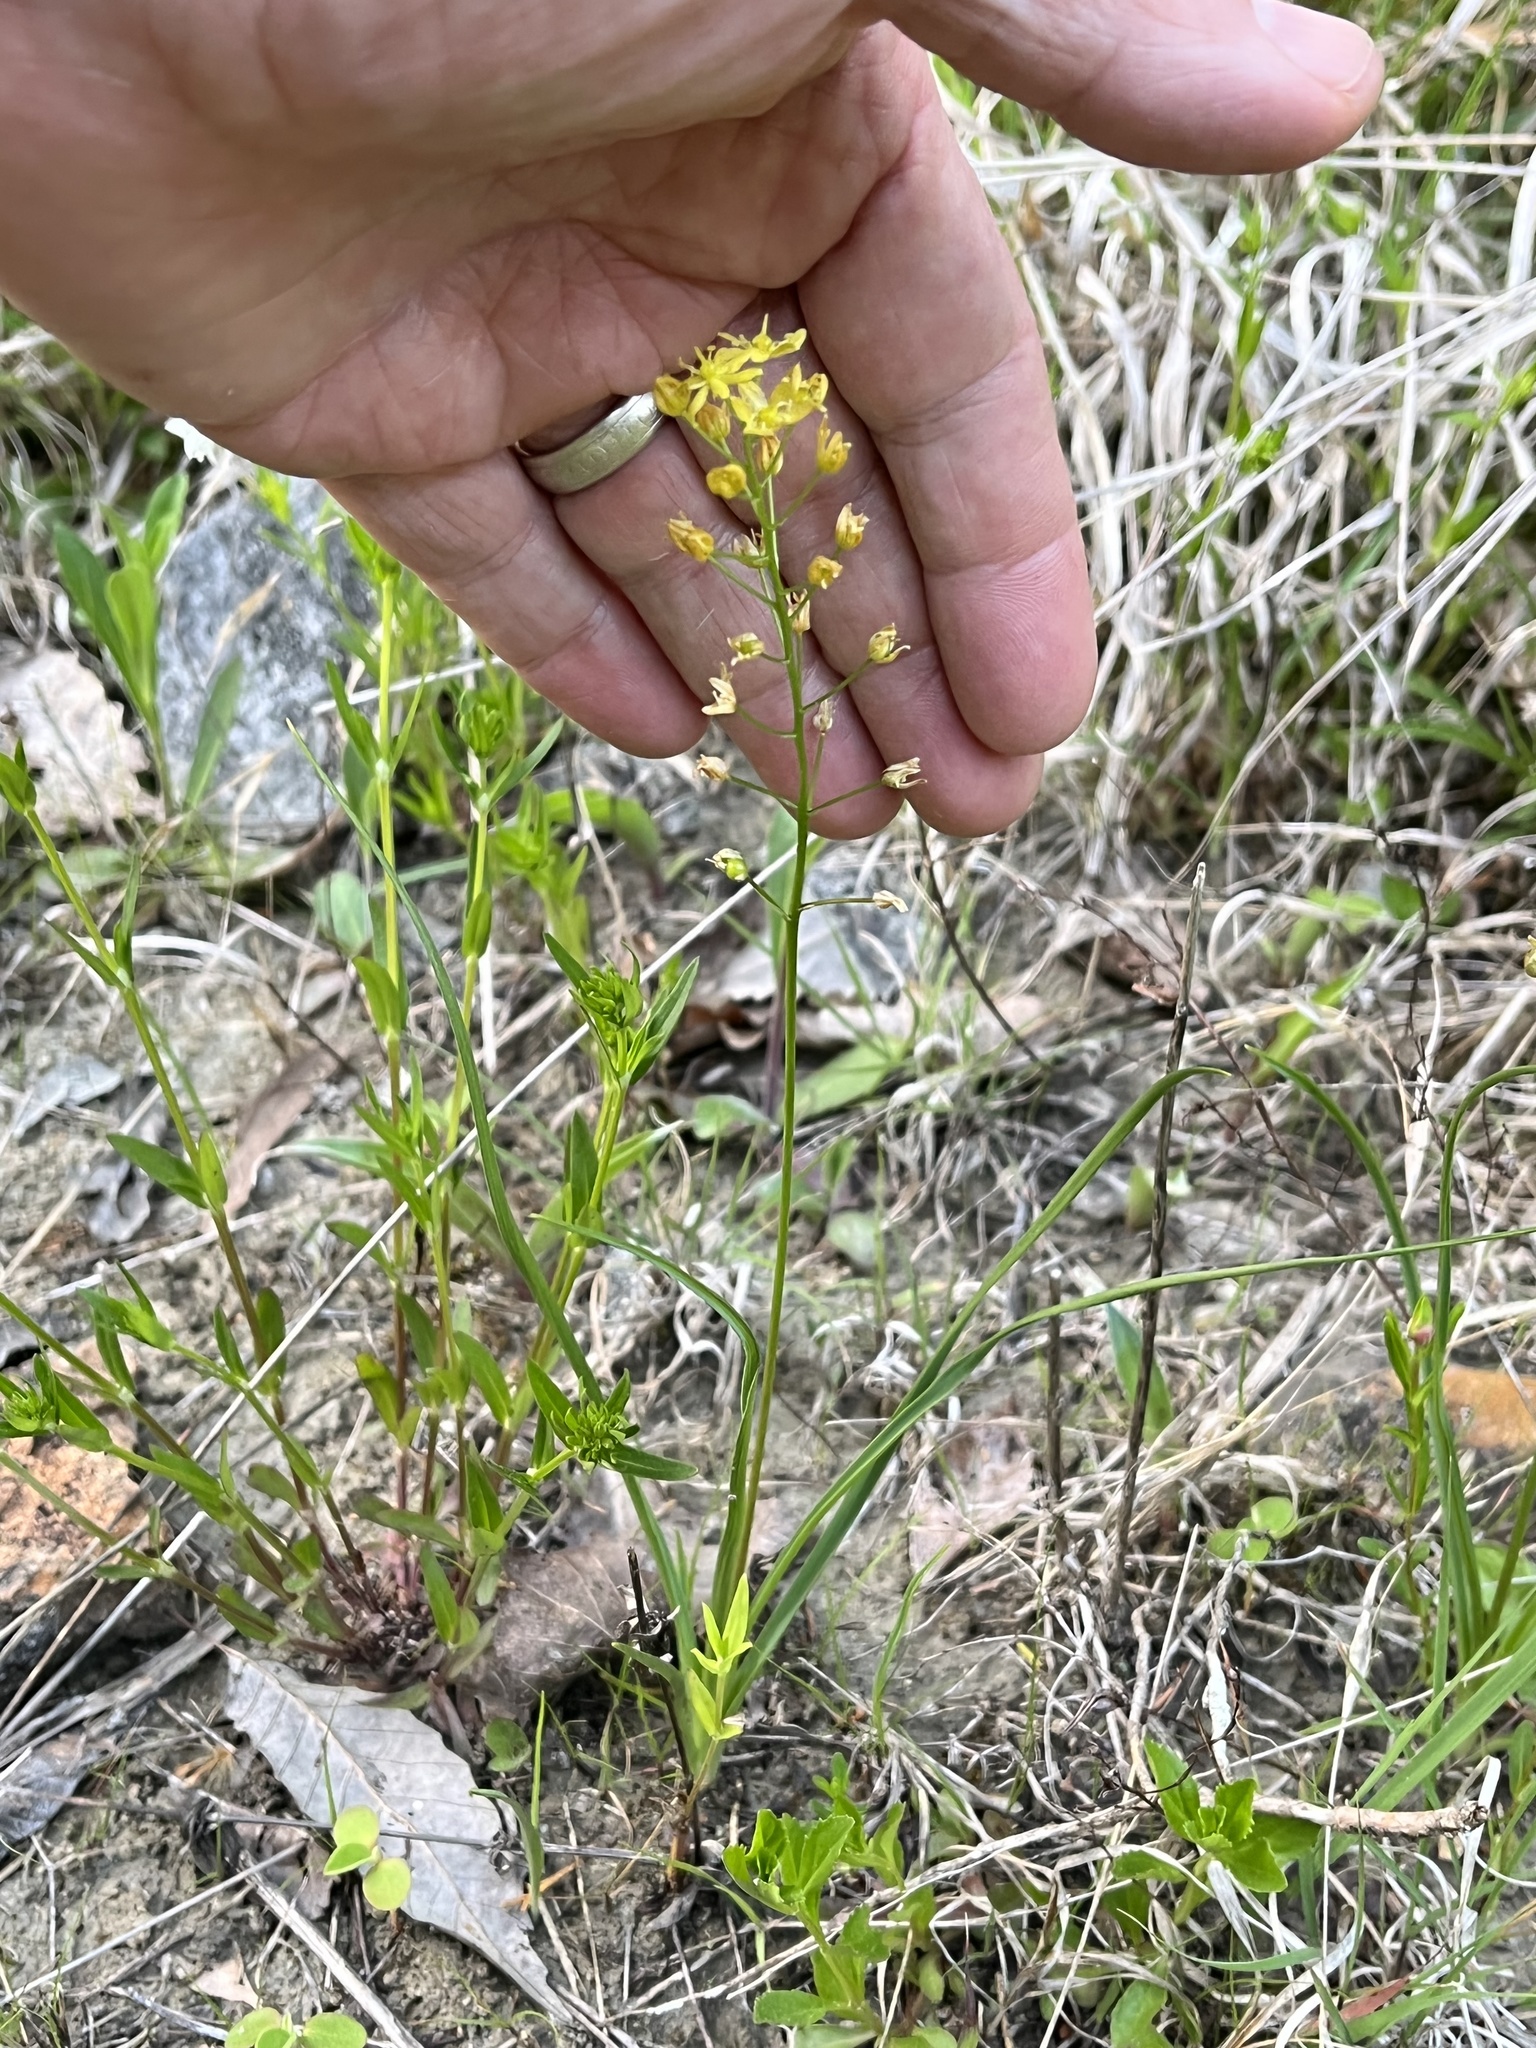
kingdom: Plantae
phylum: Tracheophyta
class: Liliopsida
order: Asparagales
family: Asparagaceae
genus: Schoenolirion
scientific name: Schoenolirion croceum
